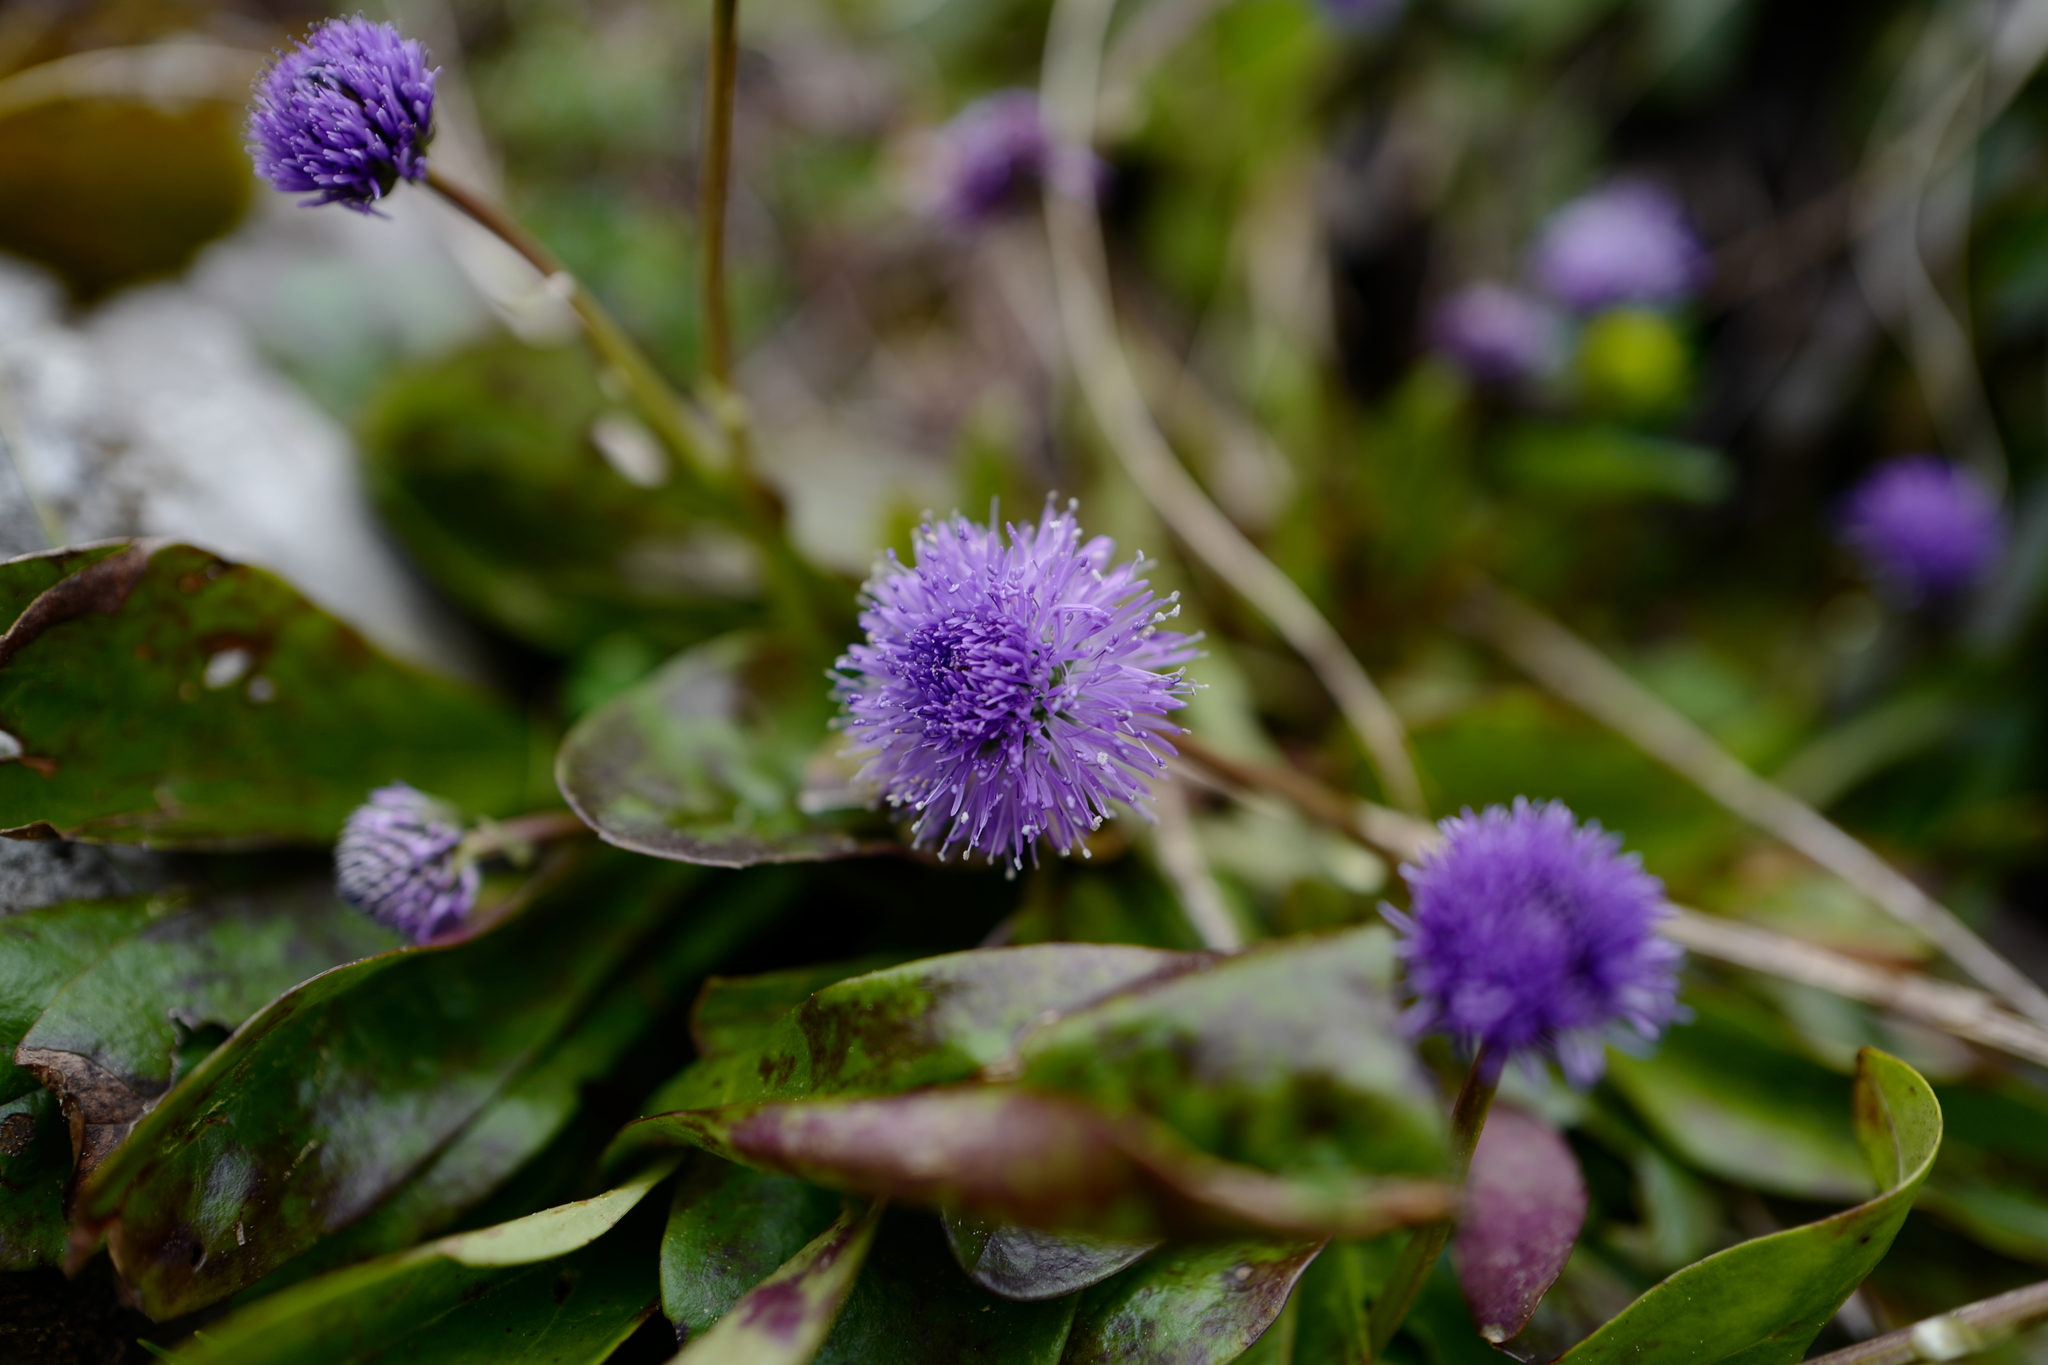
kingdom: Plantae
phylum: Tracheophyta
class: Magnoliopsida
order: Lamiales
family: Plantaginaceae
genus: Globularia
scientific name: Globularia nudicaulis
